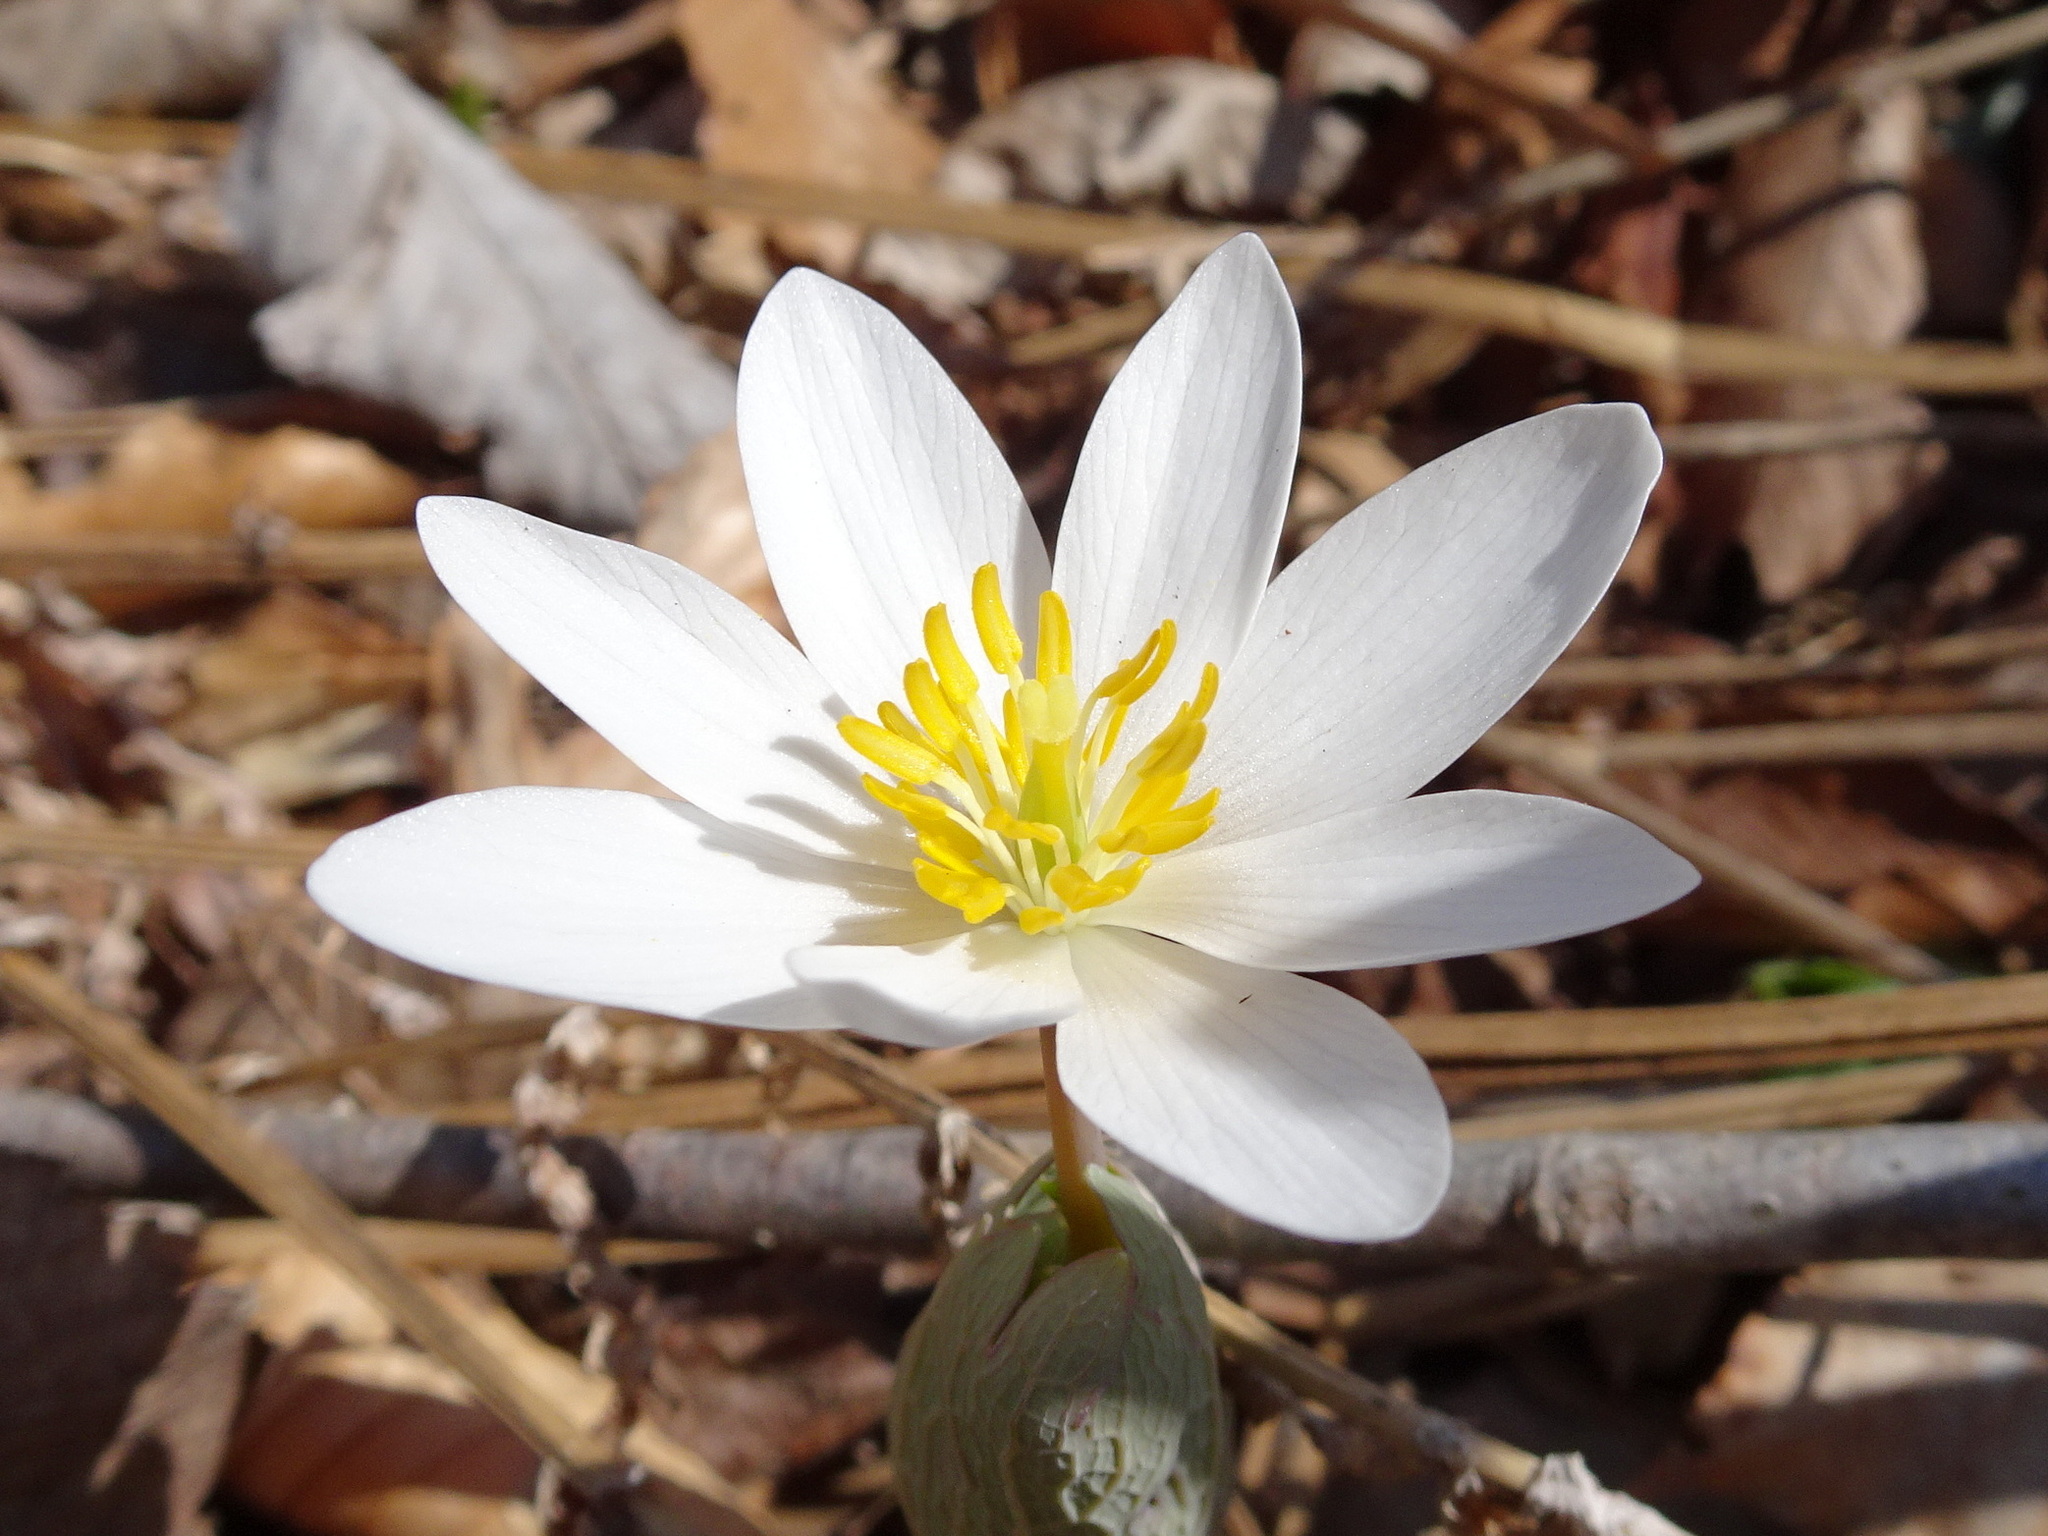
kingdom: Plantae
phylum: Tracheophyta
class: Magnoliopsida
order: Ranunculales
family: Papaveraceae
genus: Sanguinaria
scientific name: Sanguinaria canadensis
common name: Bloodroot
